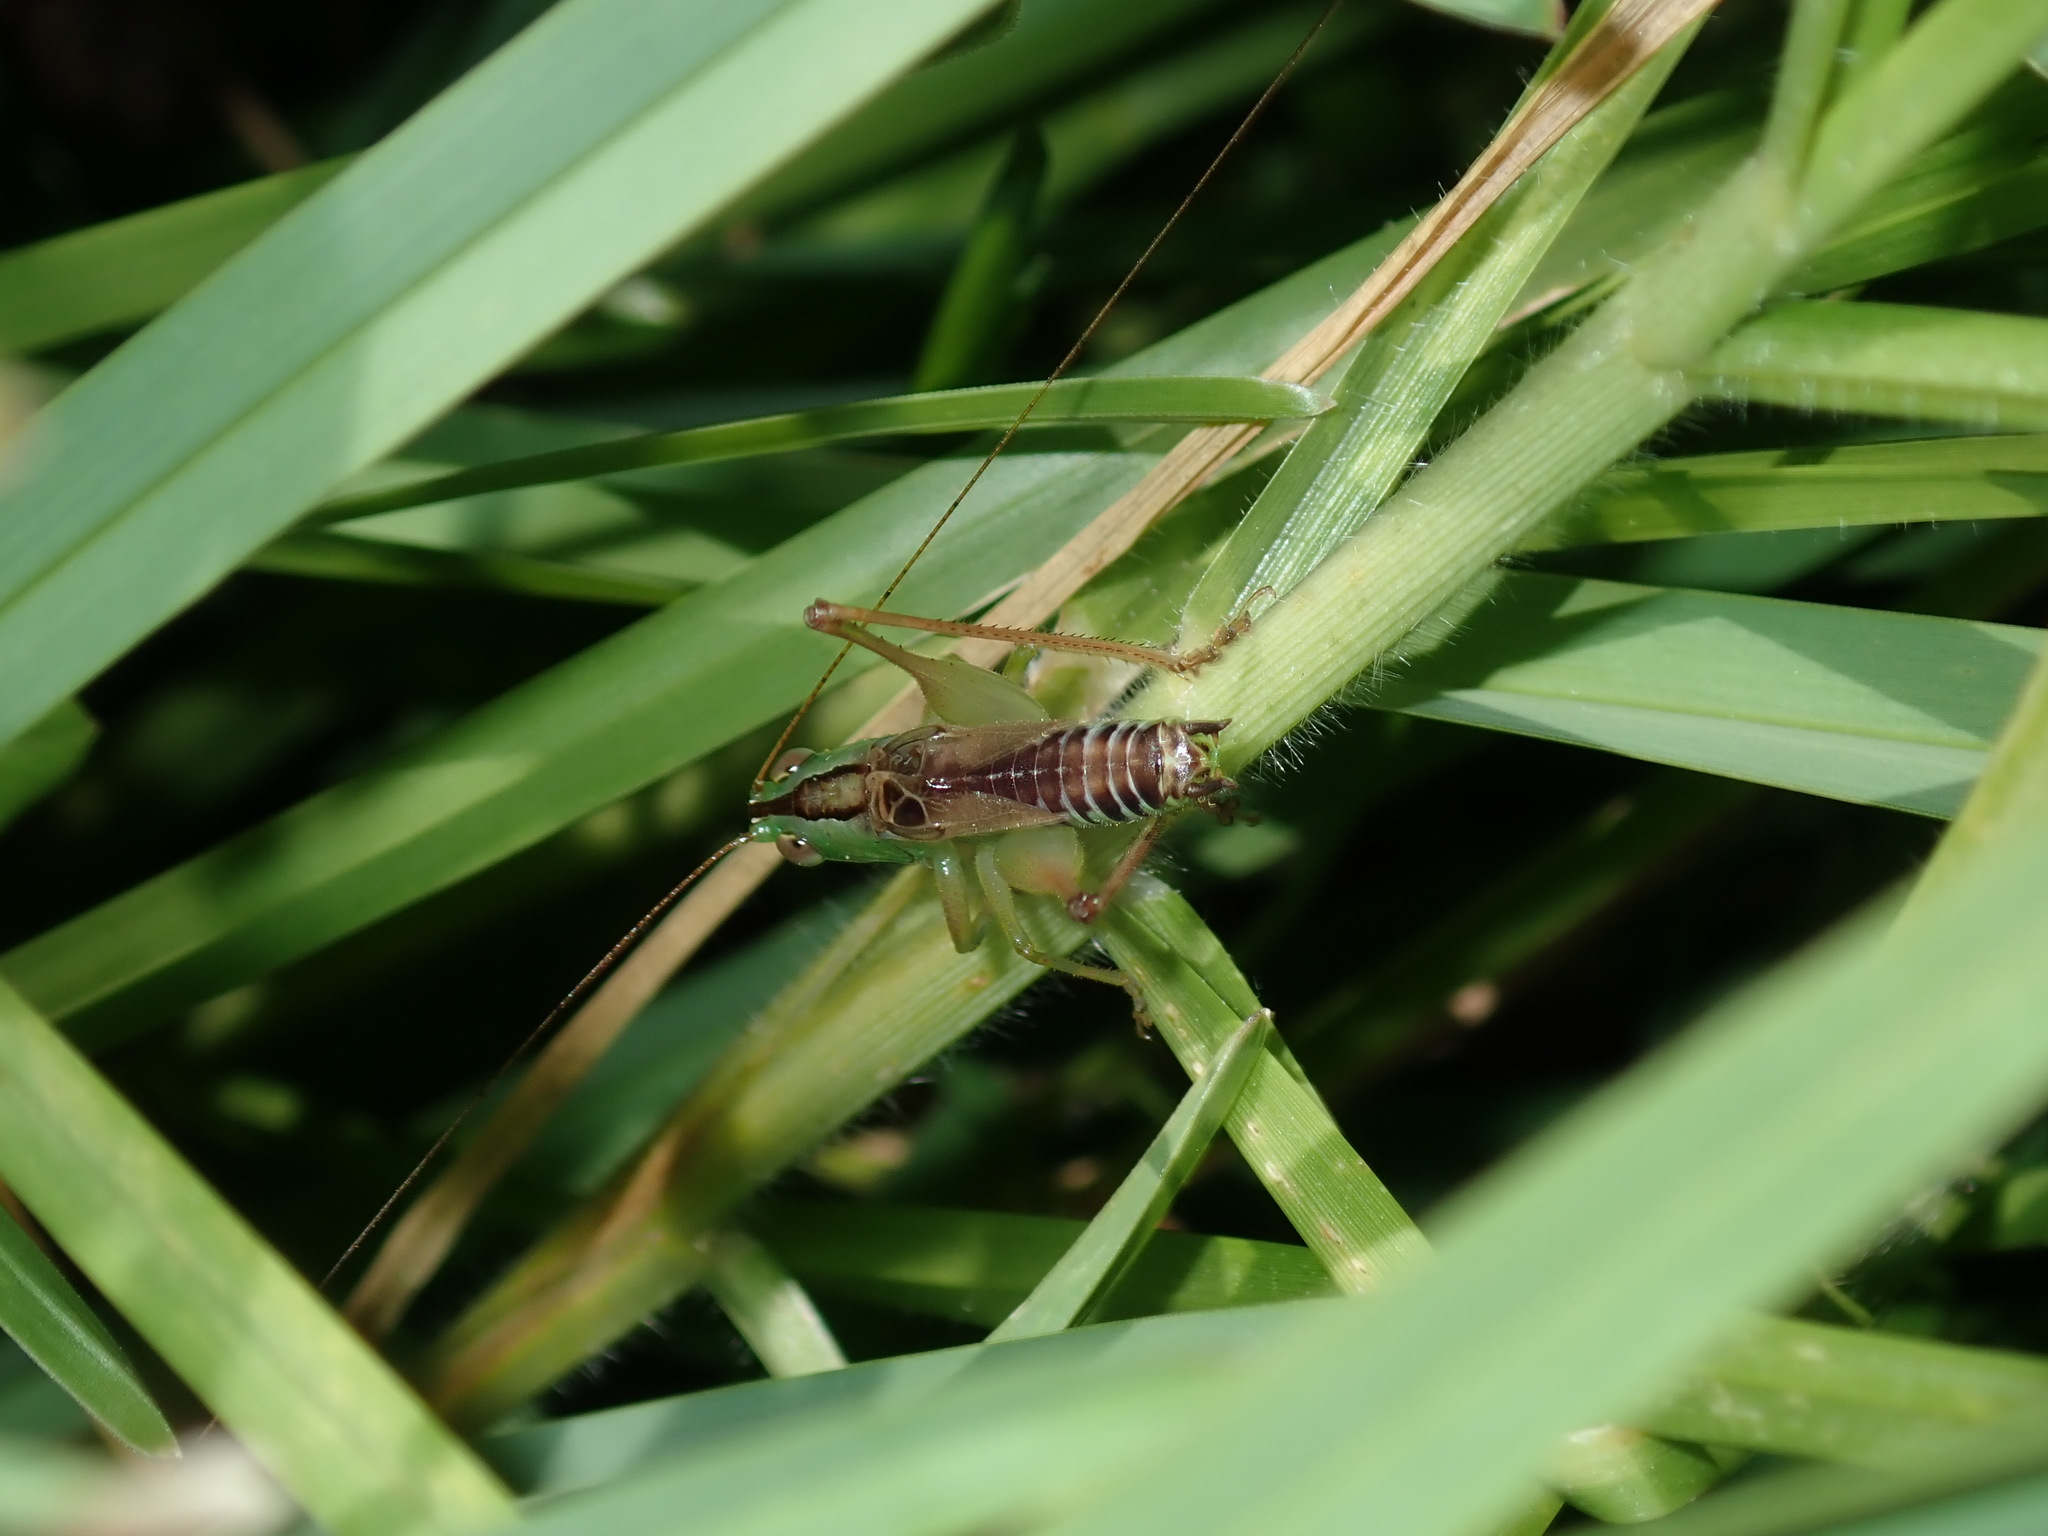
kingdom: Animalia
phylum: Arthropoda
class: Insecta
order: Orthoptera
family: Tettigoniidae
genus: Conocephalus
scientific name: Conocephalus semivittatus
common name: Blackish meadow katydid
